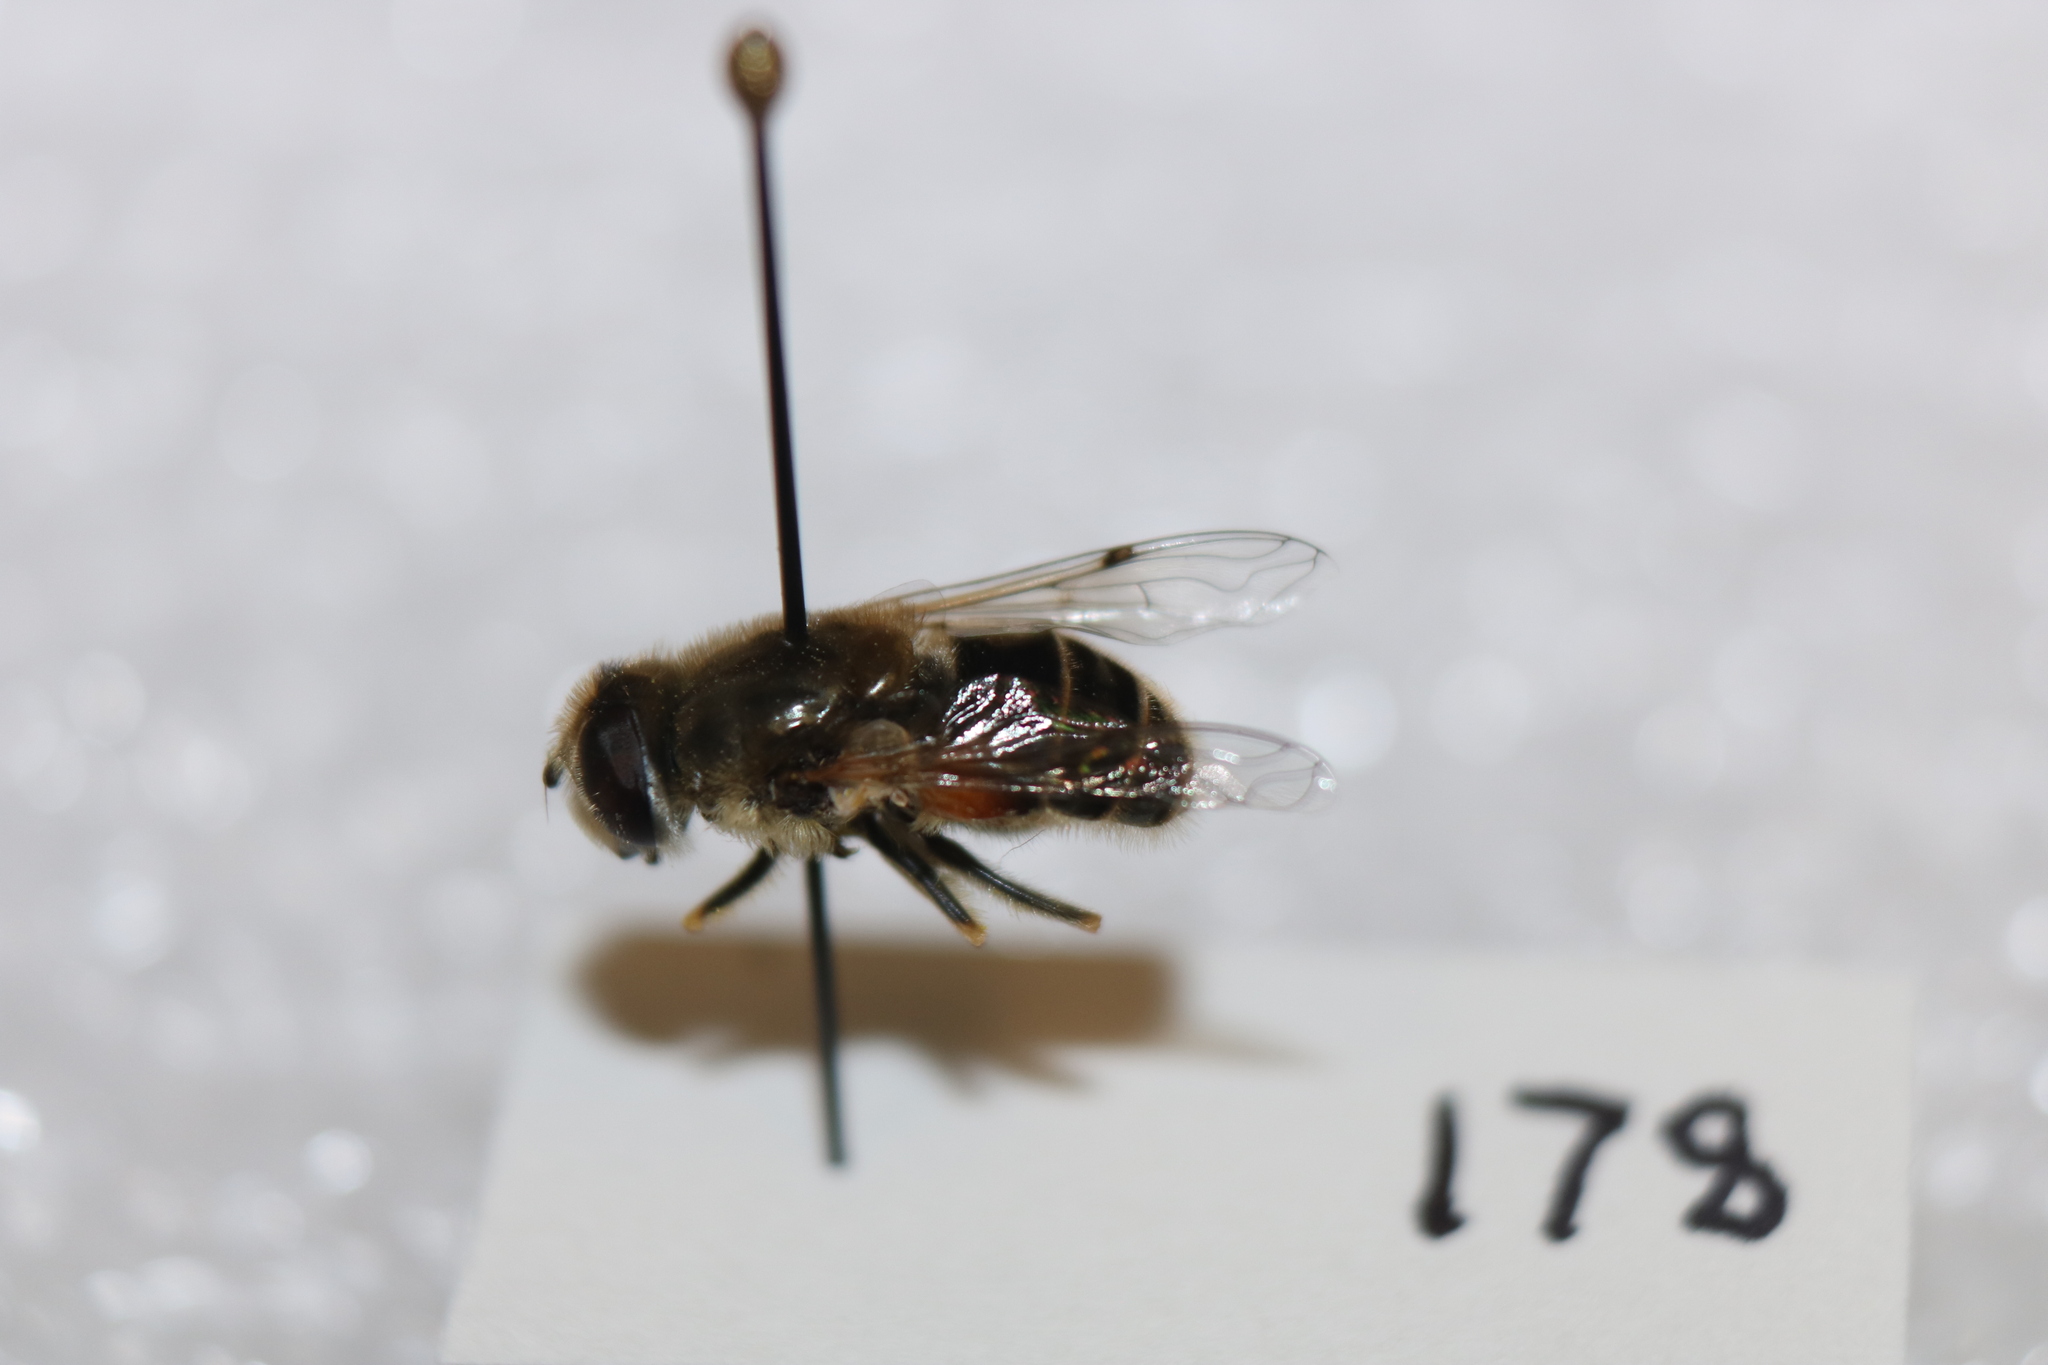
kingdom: Animalia
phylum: Arthropoda
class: Insecta
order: Diptera
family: Syrphidae
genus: Eristalis
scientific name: Eristalis arbustorum
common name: Hover fly
